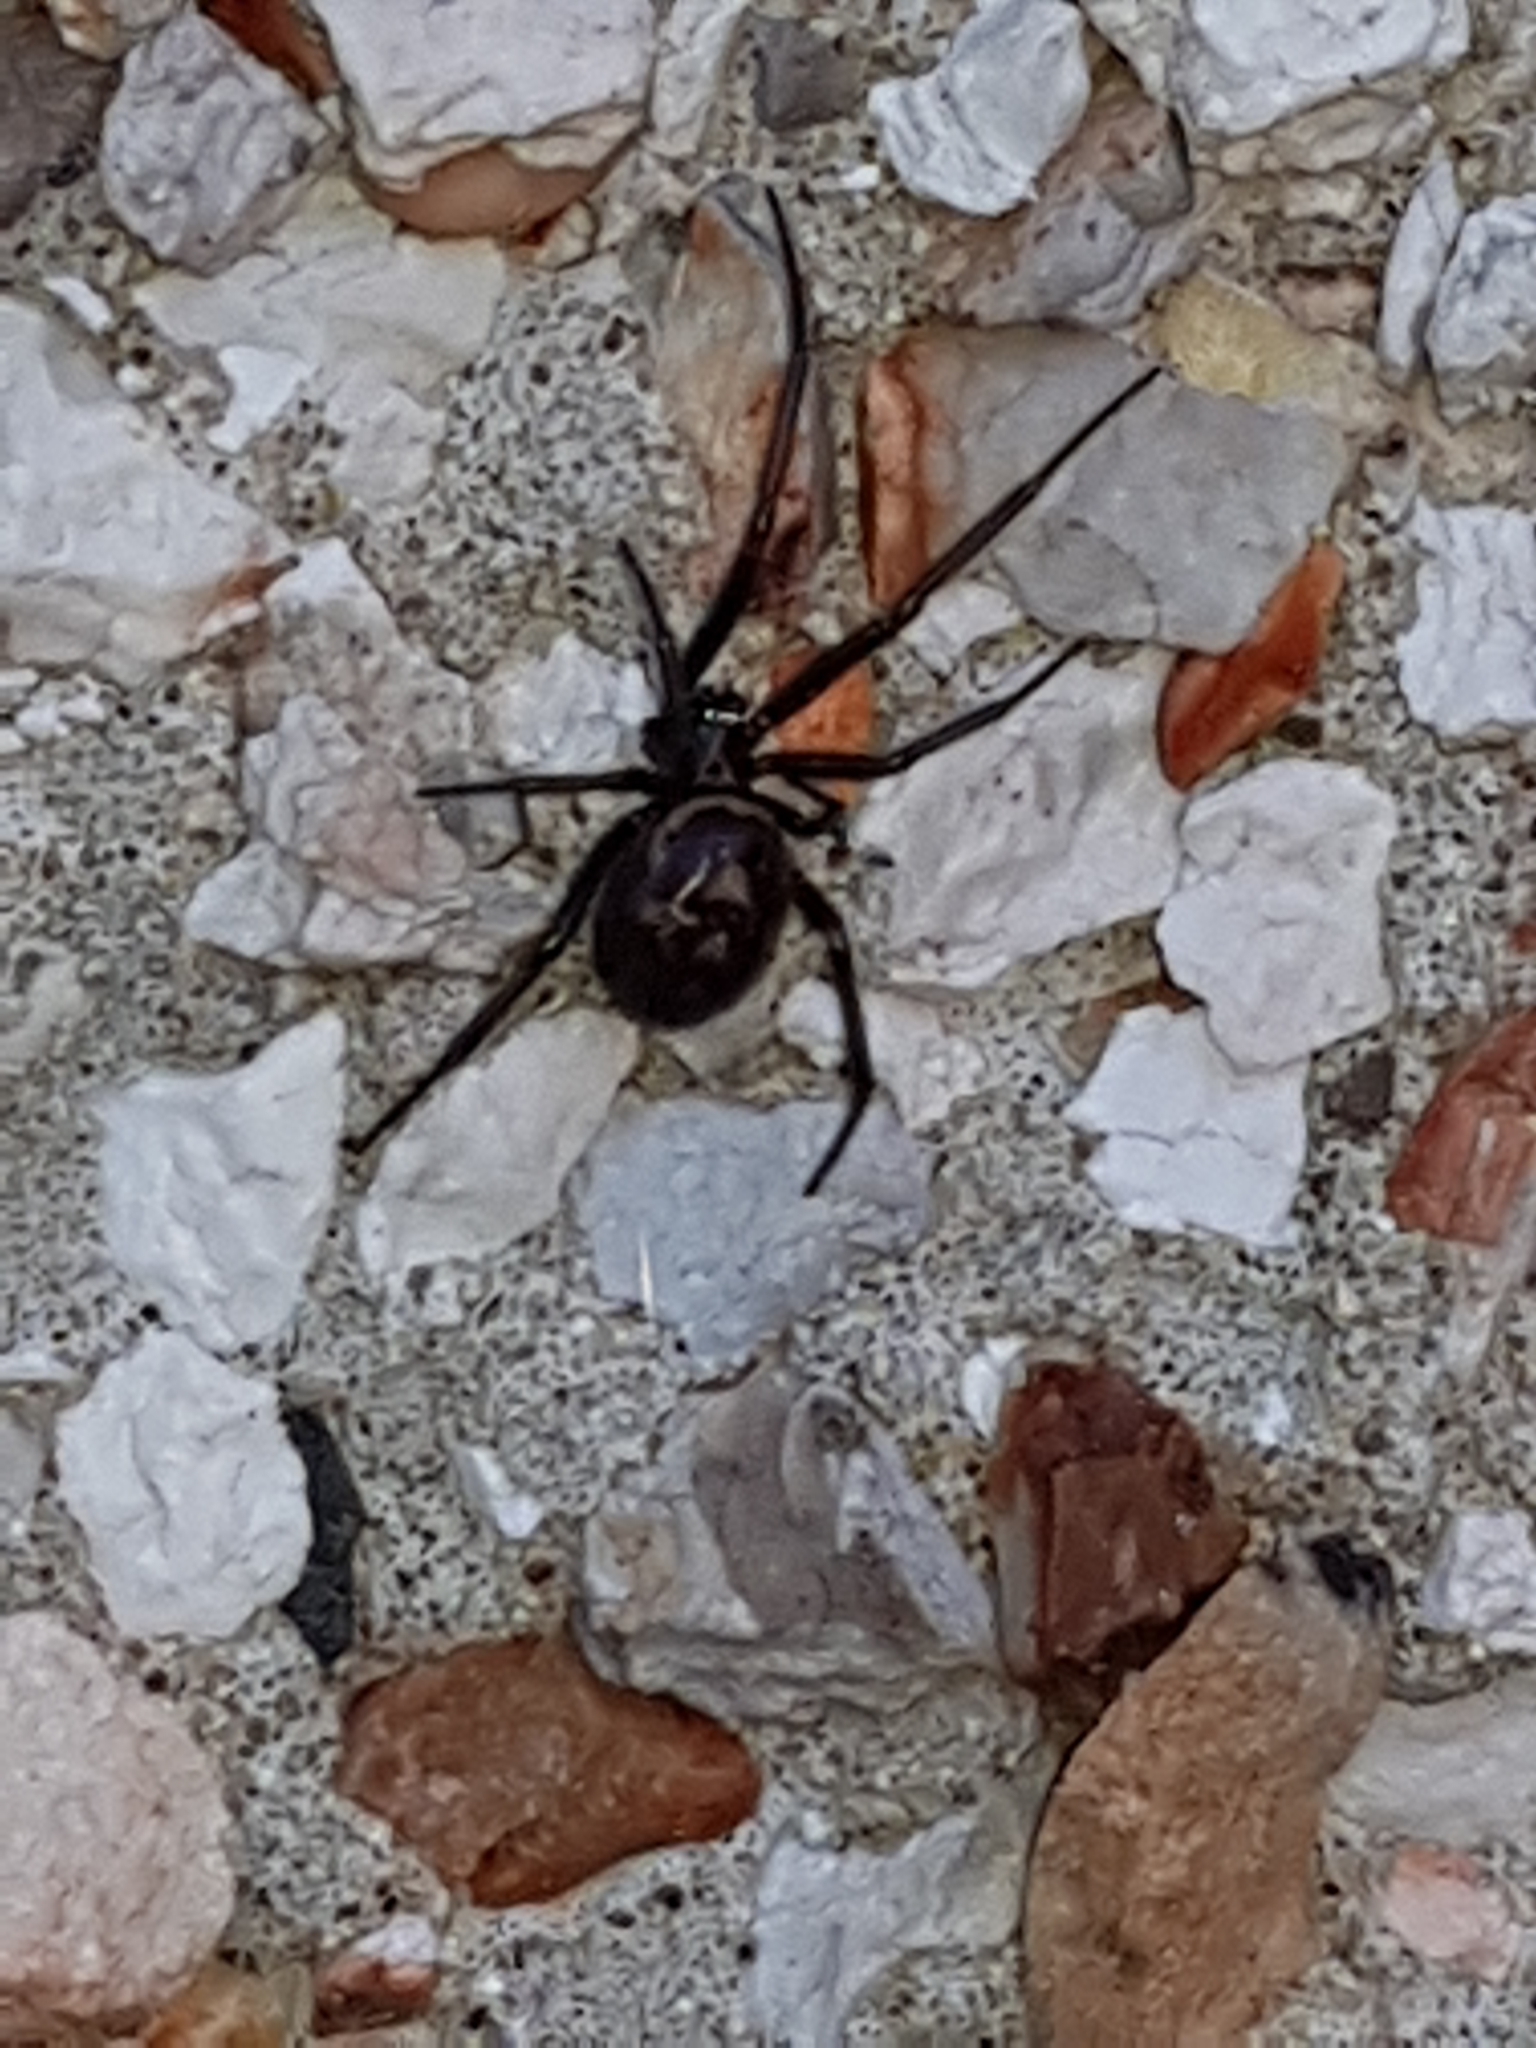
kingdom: Animalia
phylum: Arthropoda
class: Arachnida
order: Araneae
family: Theridiidae
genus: Steatoda
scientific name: Steatoda grossa
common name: False black widow
